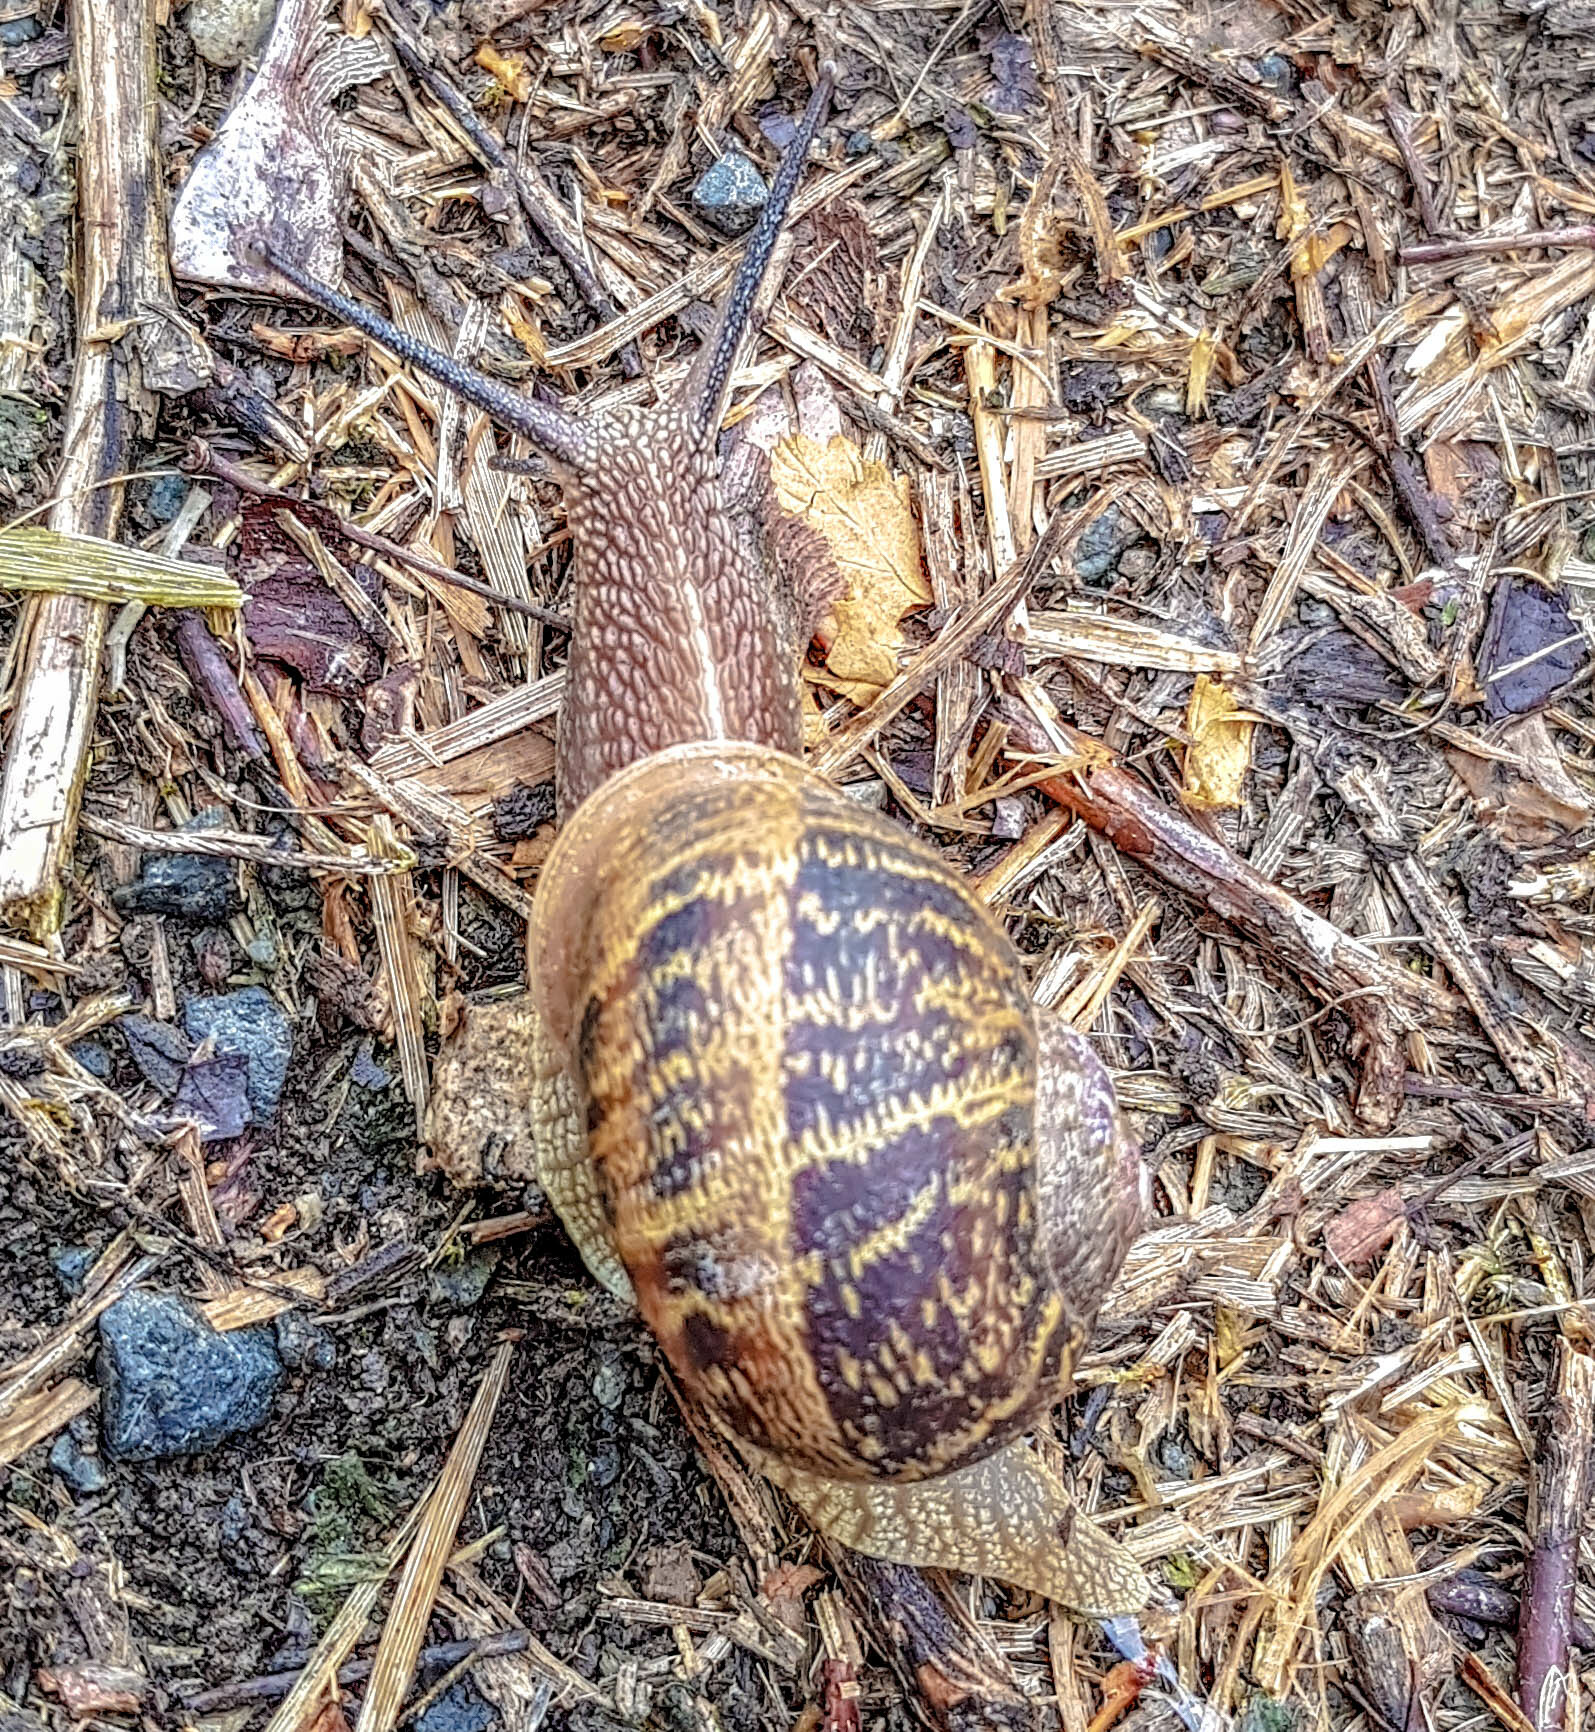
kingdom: Animalia
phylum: Mollusca
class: Gastropoda
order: Stylommatophora
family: Helicidae
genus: Cornu
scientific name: Cornu aspersum
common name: Brown garden snail
